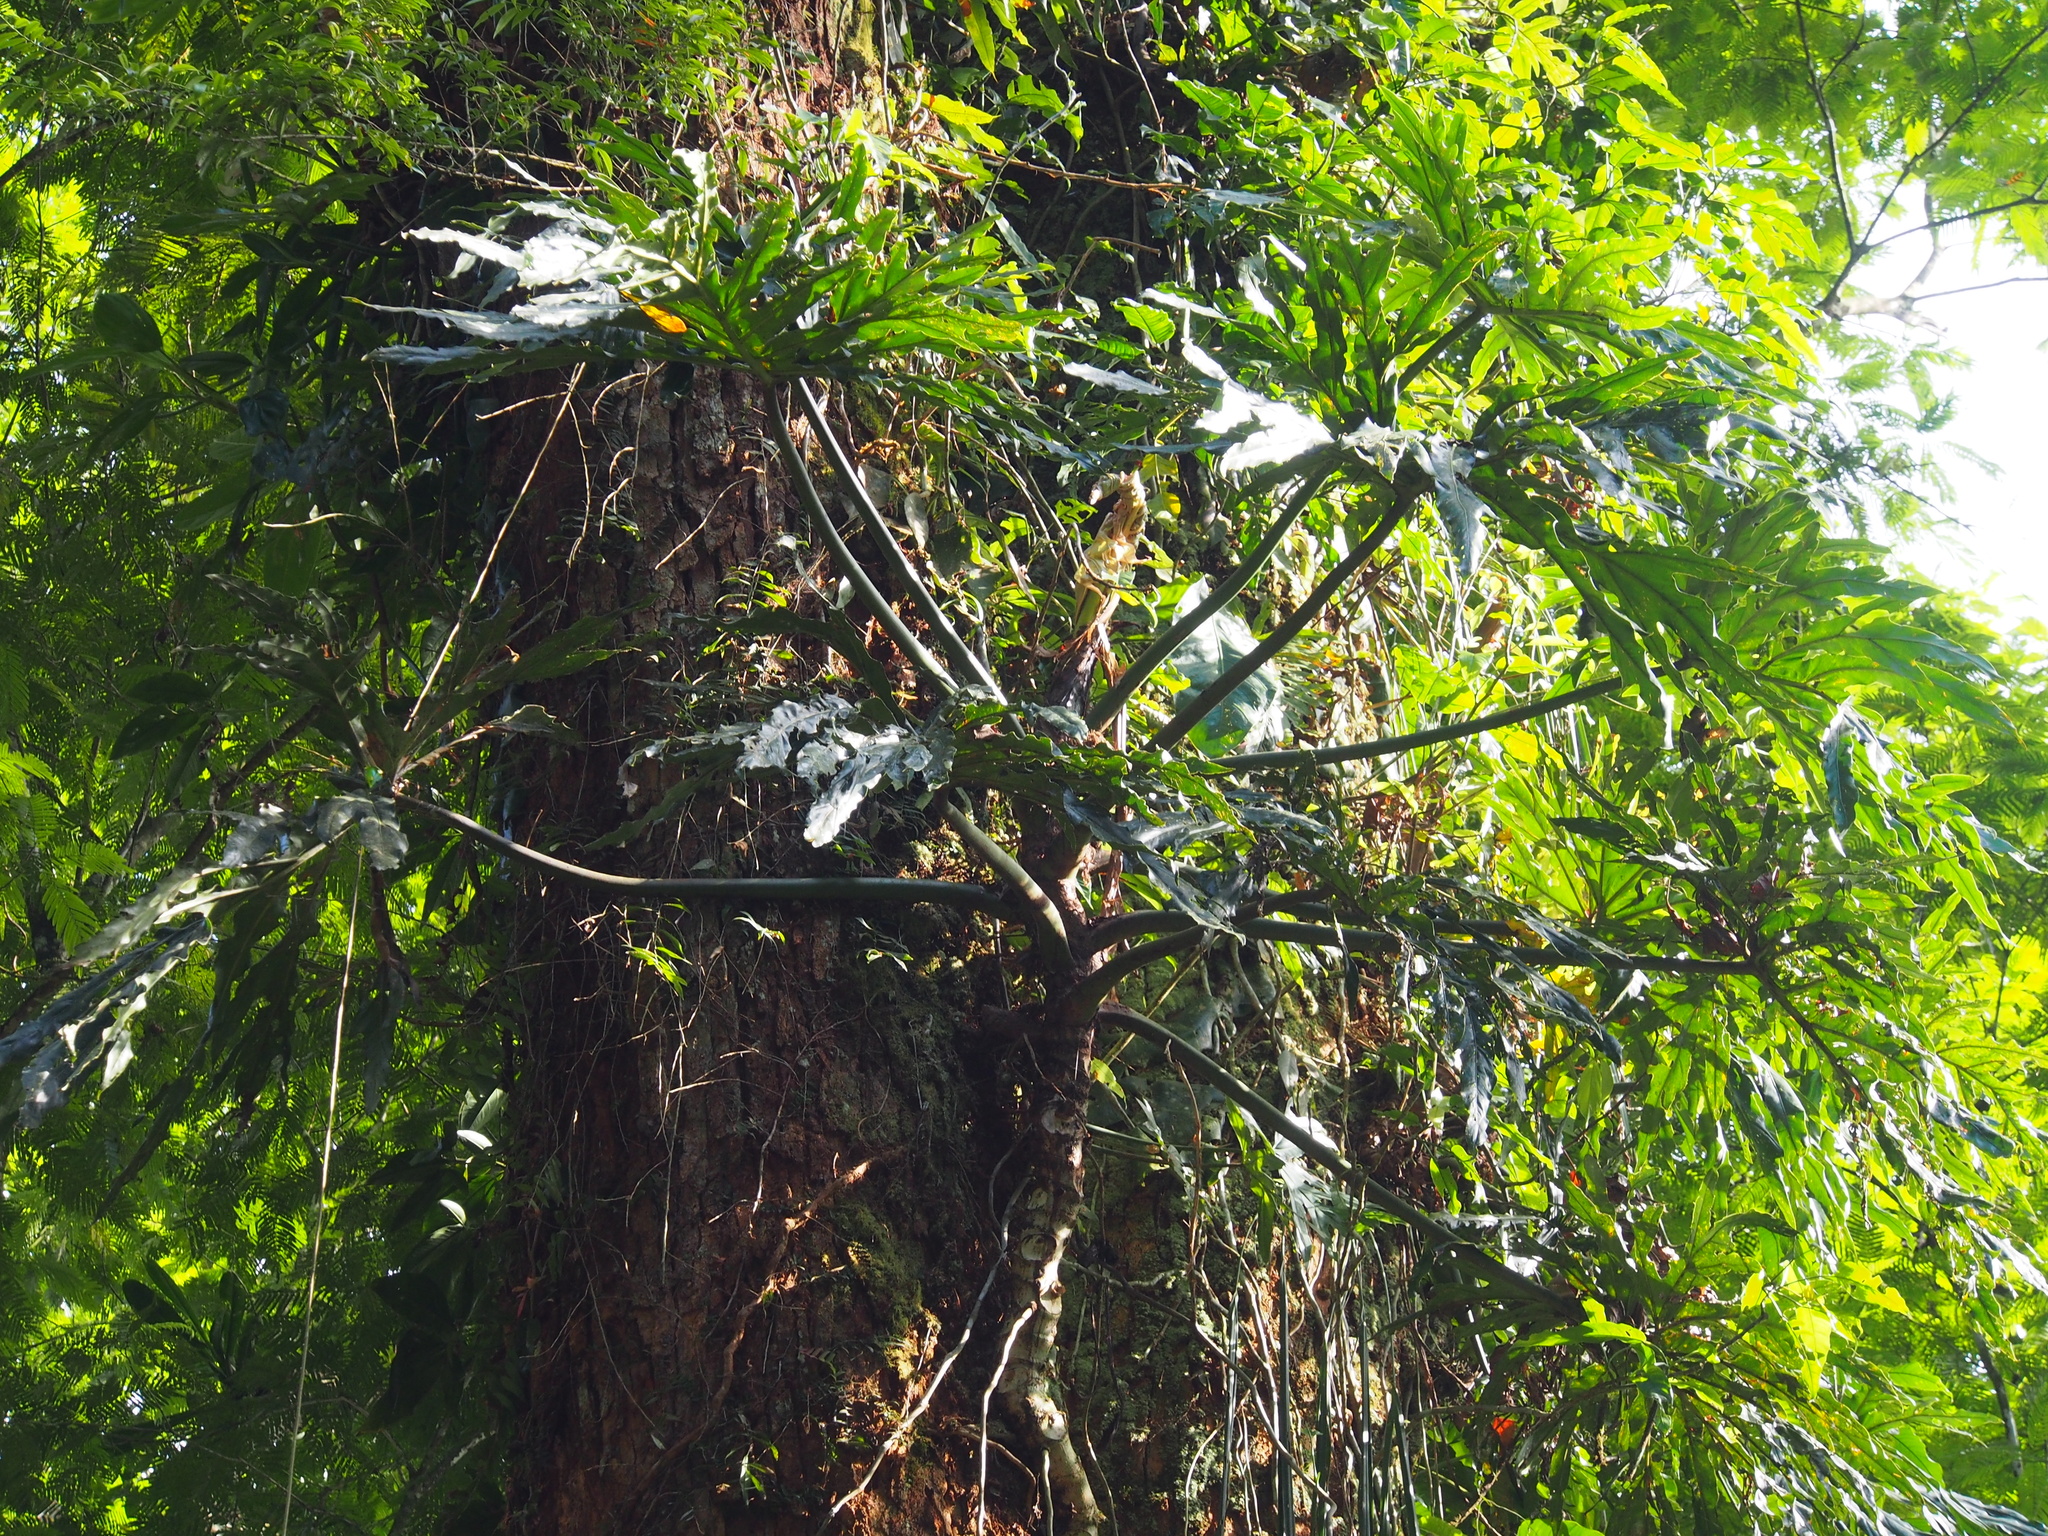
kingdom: Plantae
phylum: Tracheophyta
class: Liliopsida
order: Alismatales
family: Araceae
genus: Philodendron
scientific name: Philodendron radiatum
